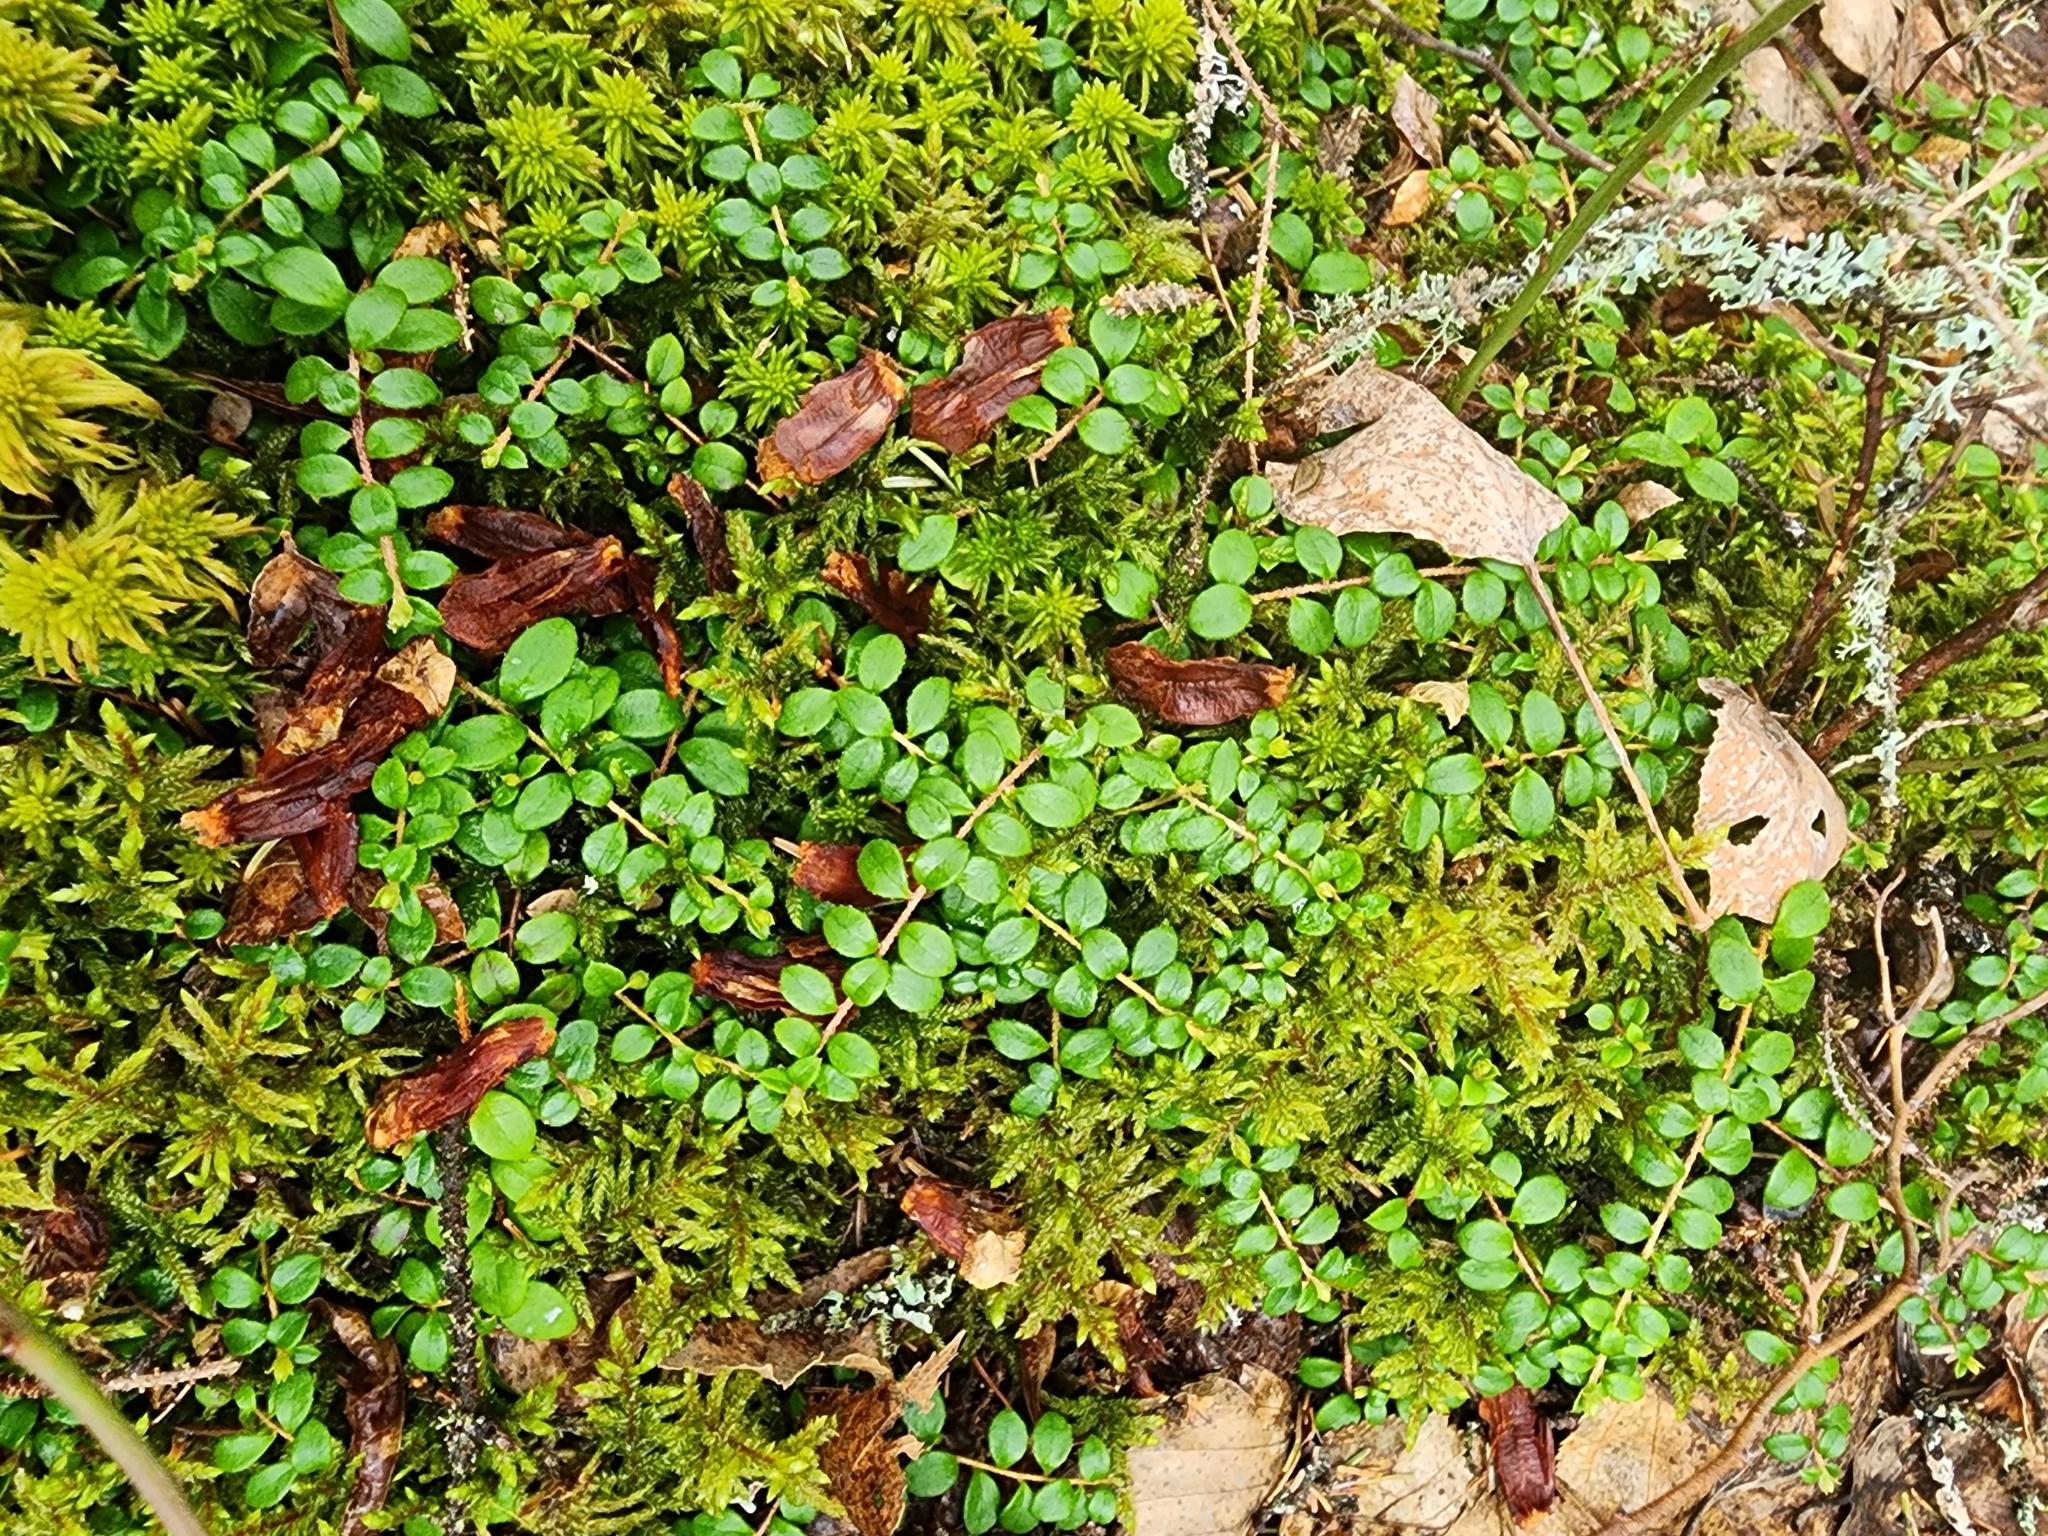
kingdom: Plantae
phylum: Tracheophyta
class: Magnoliopsida
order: Ericales
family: Ericaceae
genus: Gaultheria
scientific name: Gaultheria hispidula
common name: Cancer wintergreen
